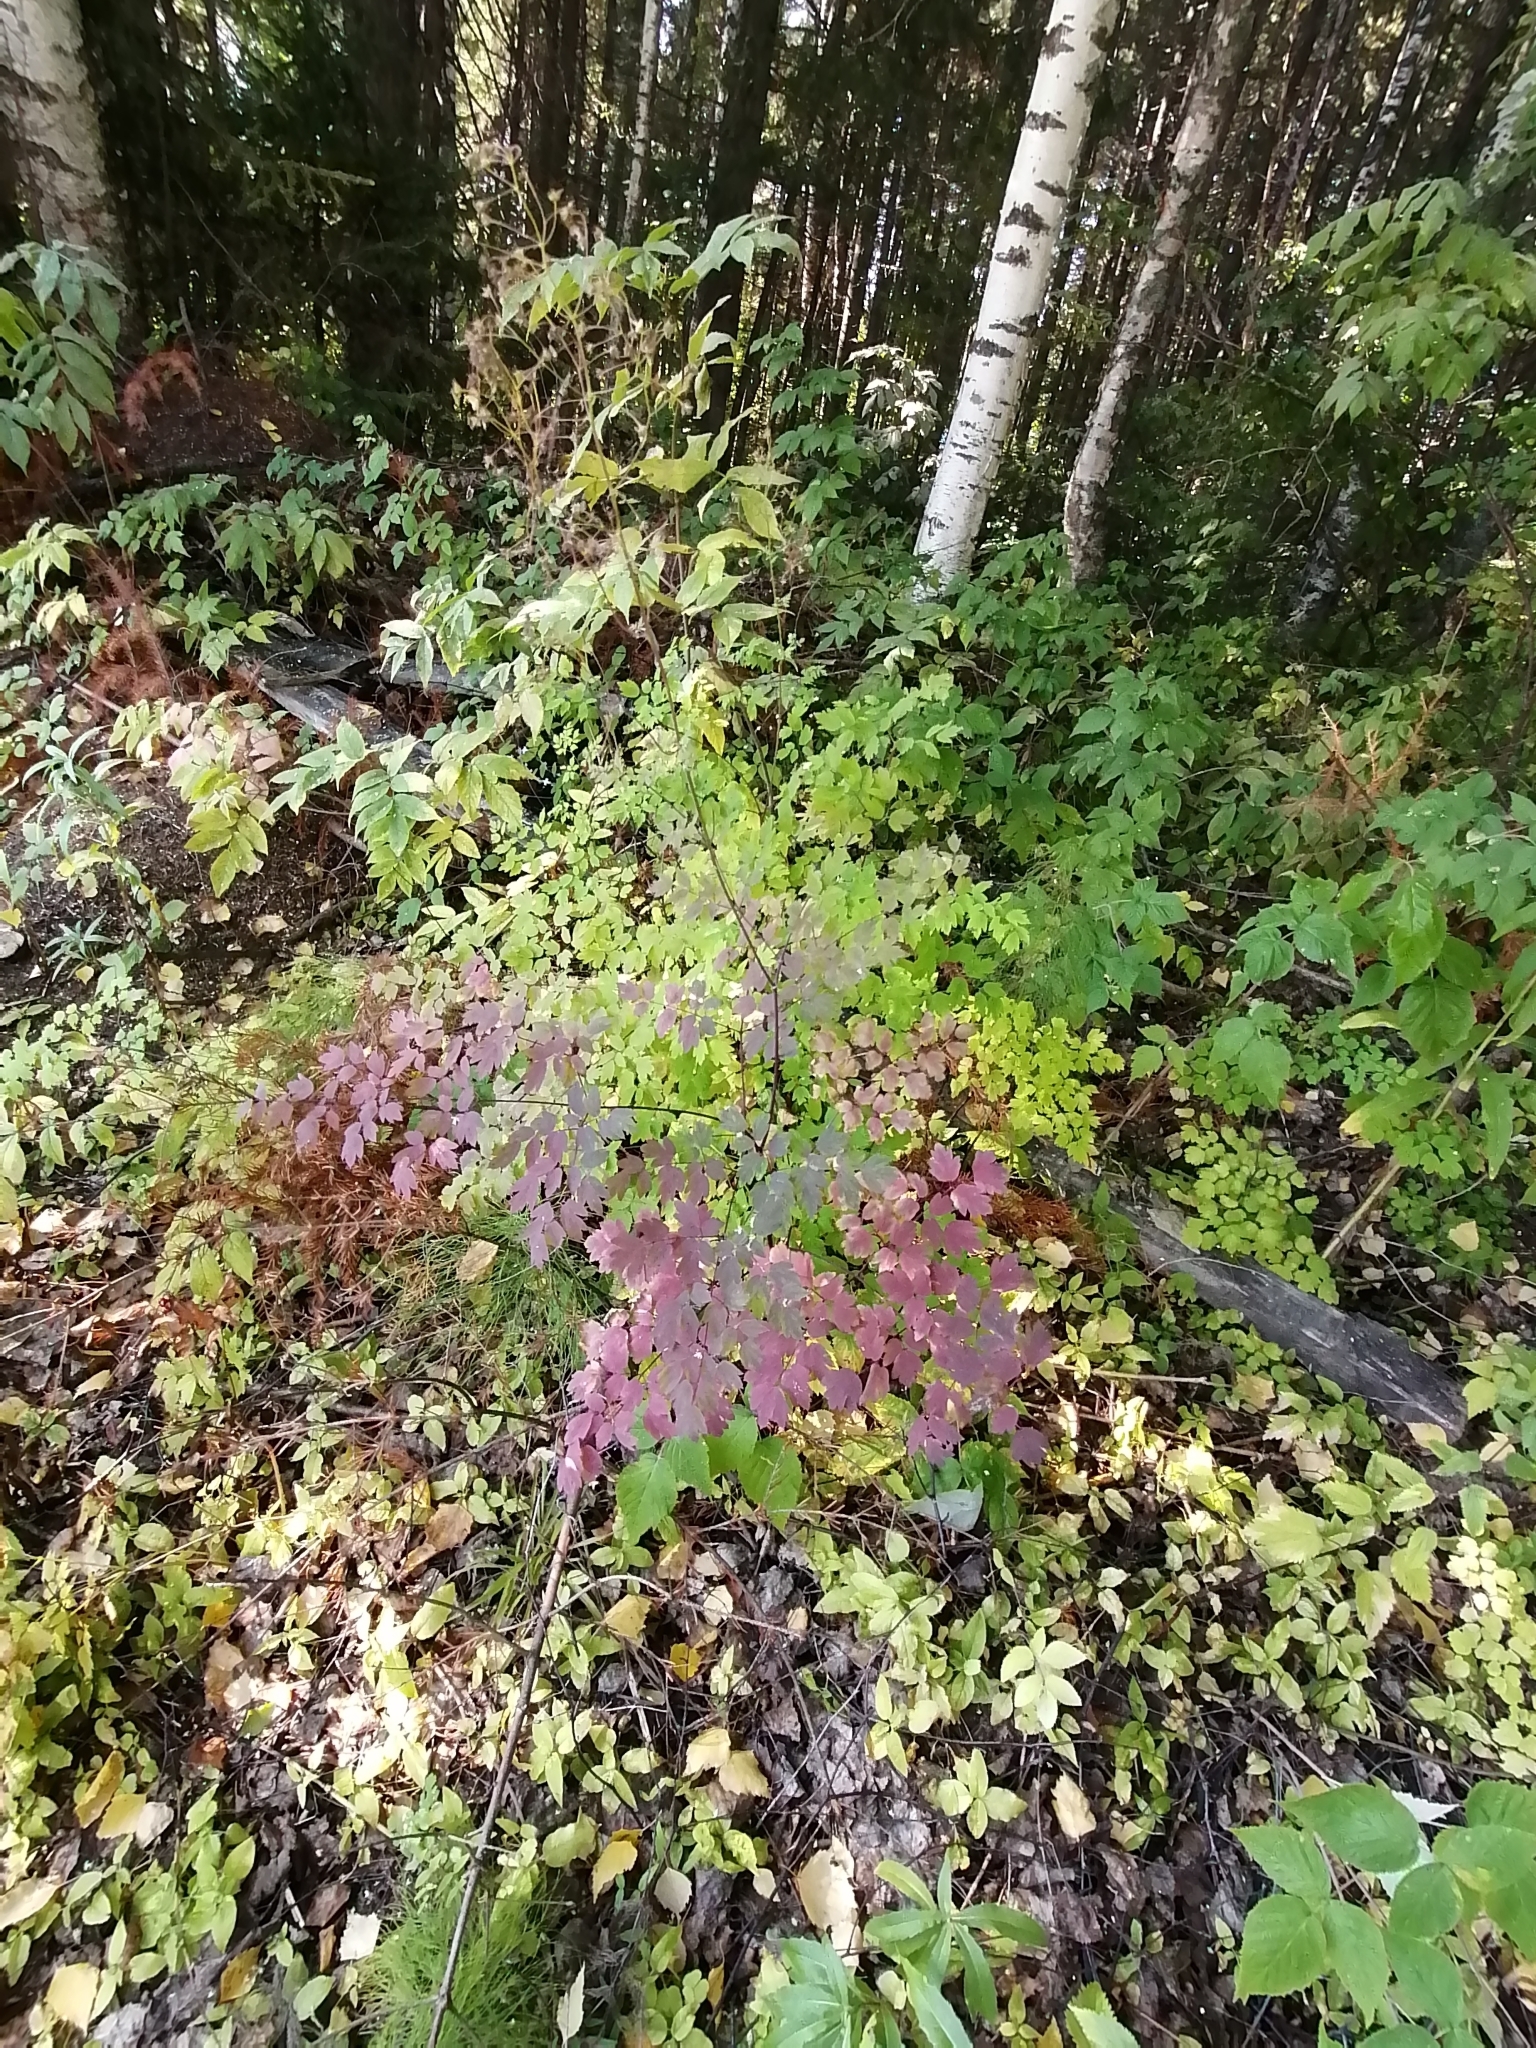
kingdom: Plantae
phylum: Tracheophyta
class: Magnoliopsida
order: Ranunculales
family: Ranunculaceae
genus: Thalictrum
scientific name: Thalictrum minus
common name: Lesser meadow-rue
